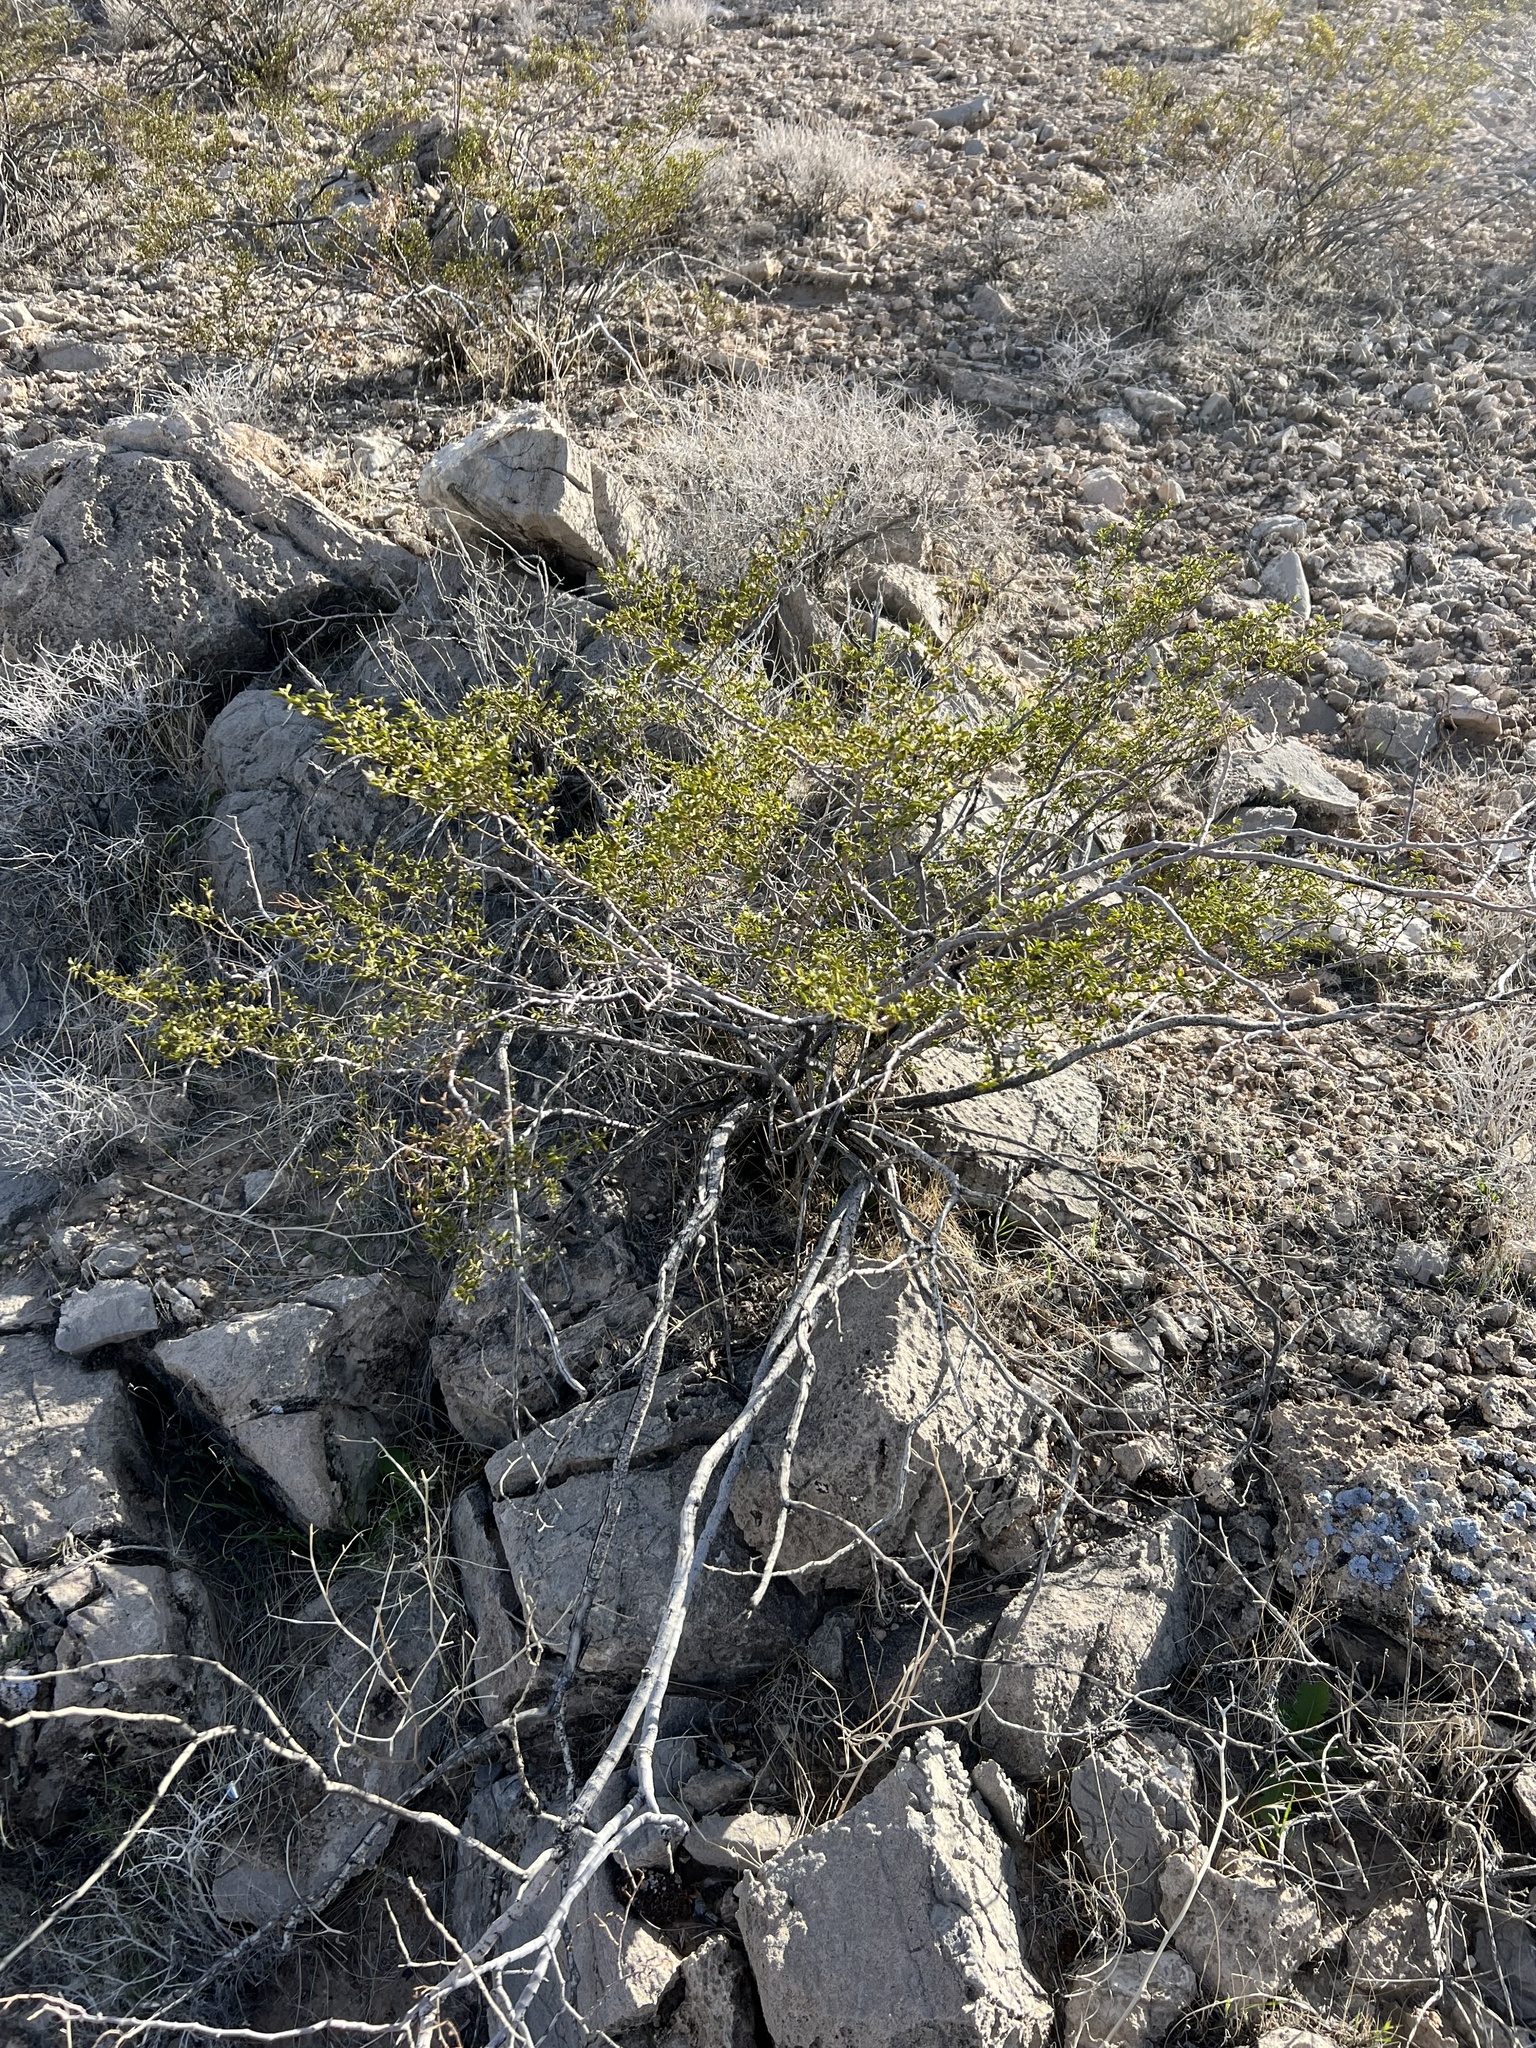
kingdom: Plantae
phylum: Tracheophyta
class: Magnoliopsida
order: Zygophyllales
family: Zygophyllaceae
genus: Larrea
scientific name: Larrea tridentata
